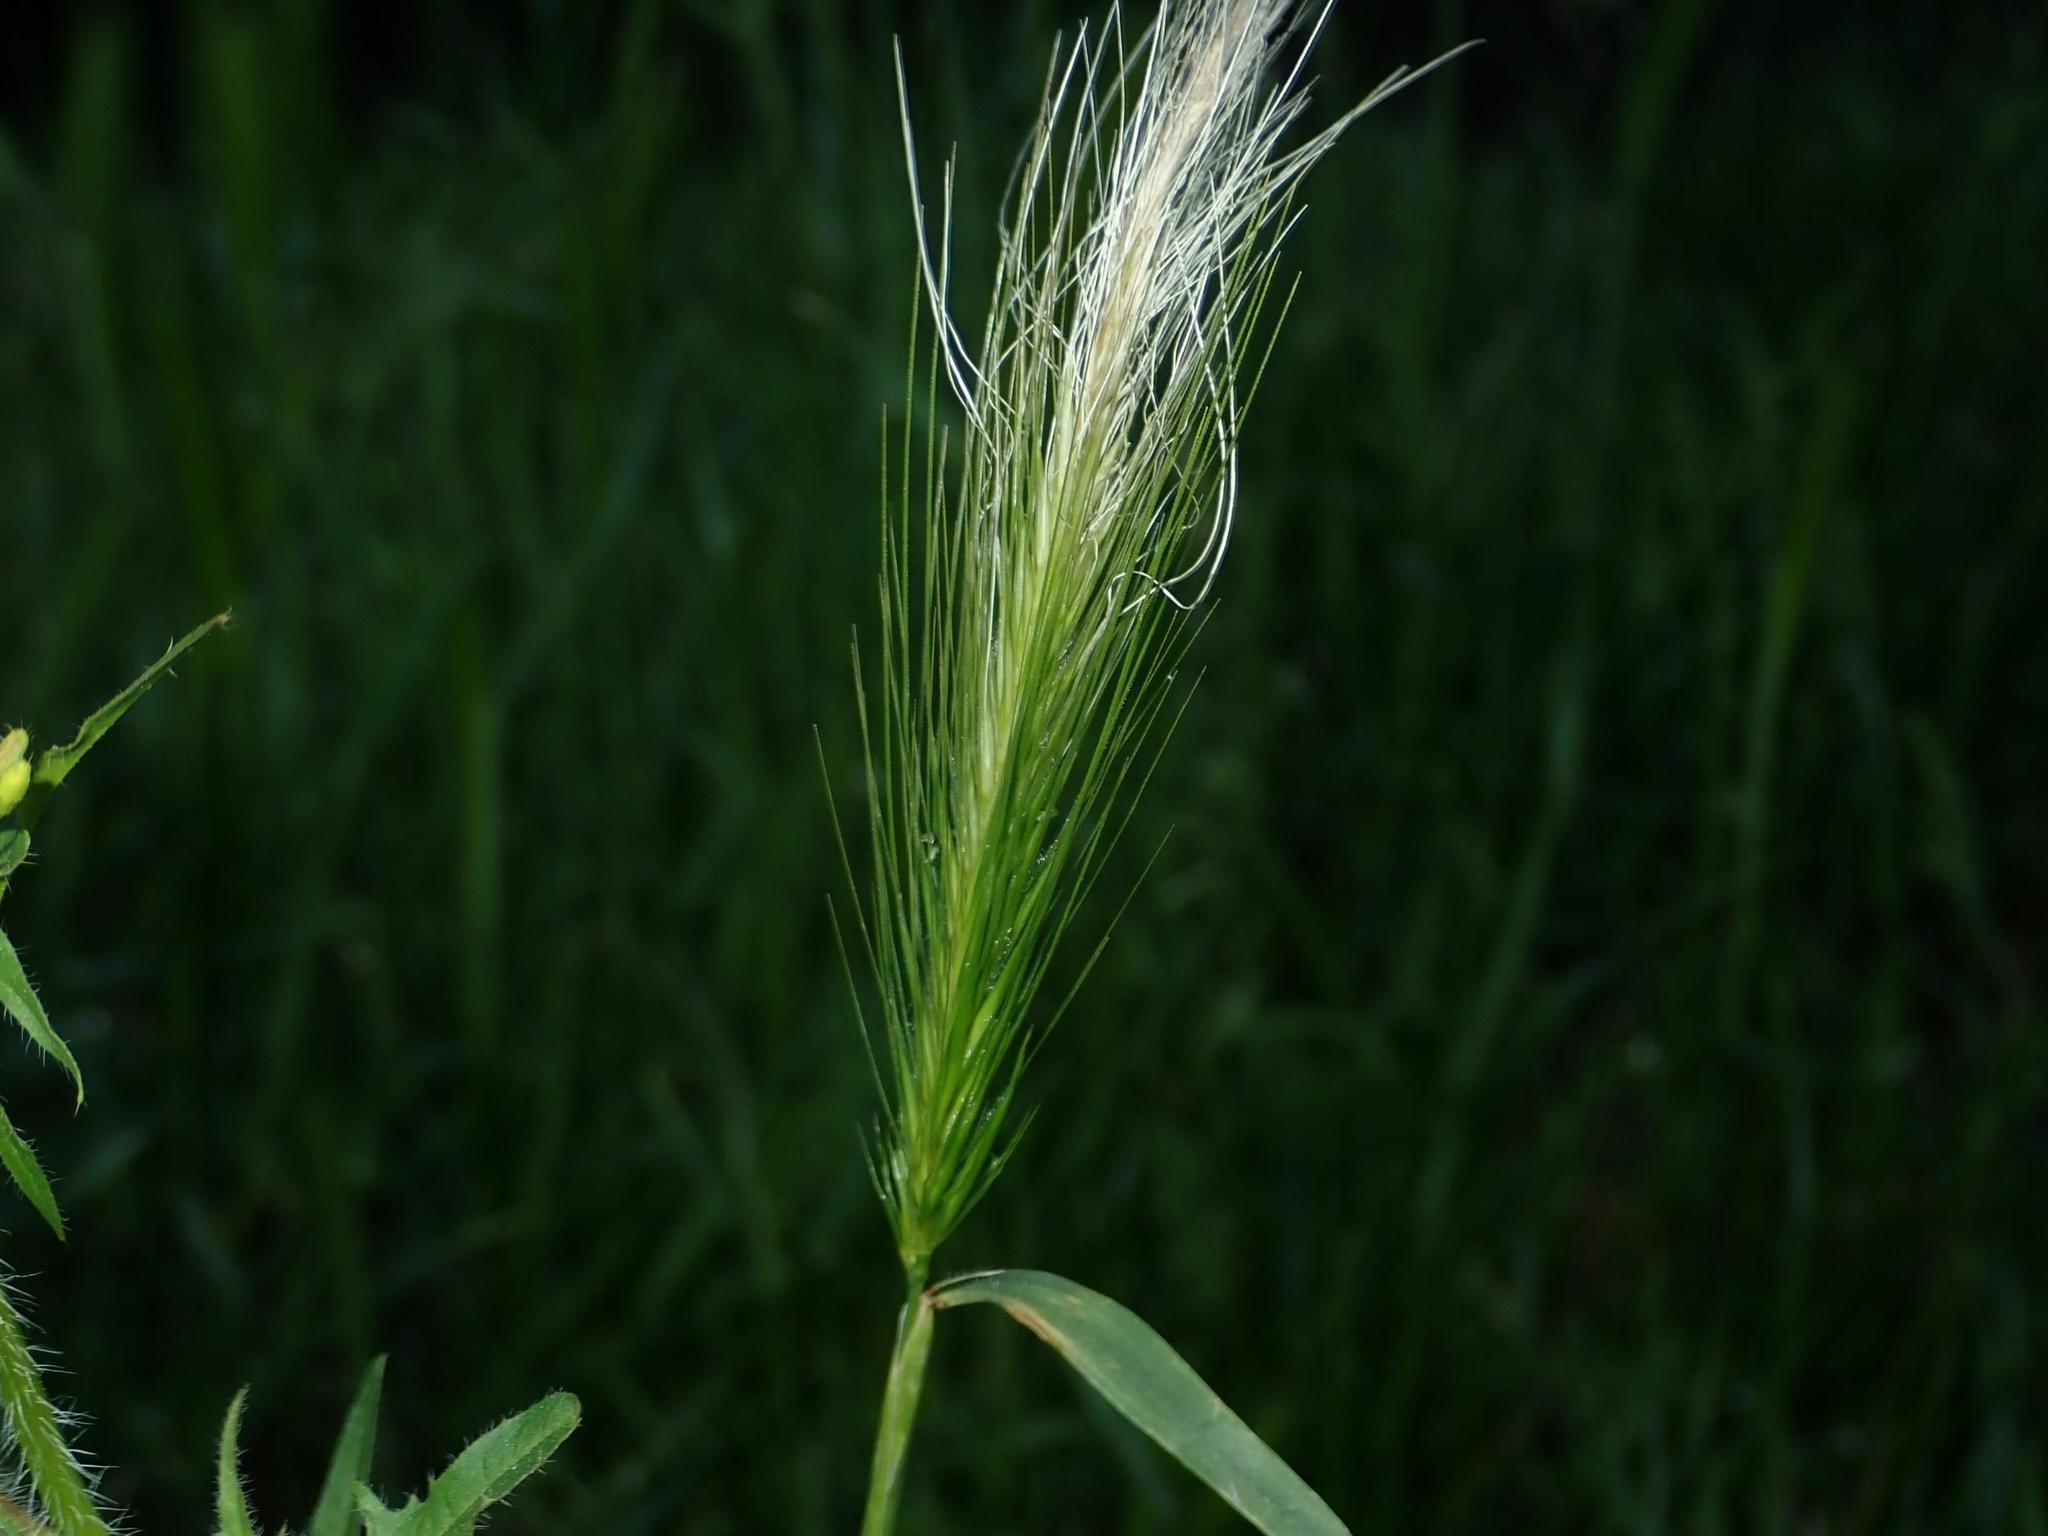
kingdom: Plantae
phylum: Tracheophyta
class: Liliopsida
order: Poales
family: Poaceae
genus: Hordeum
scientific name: Hordeum murinum
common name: Wall barley
